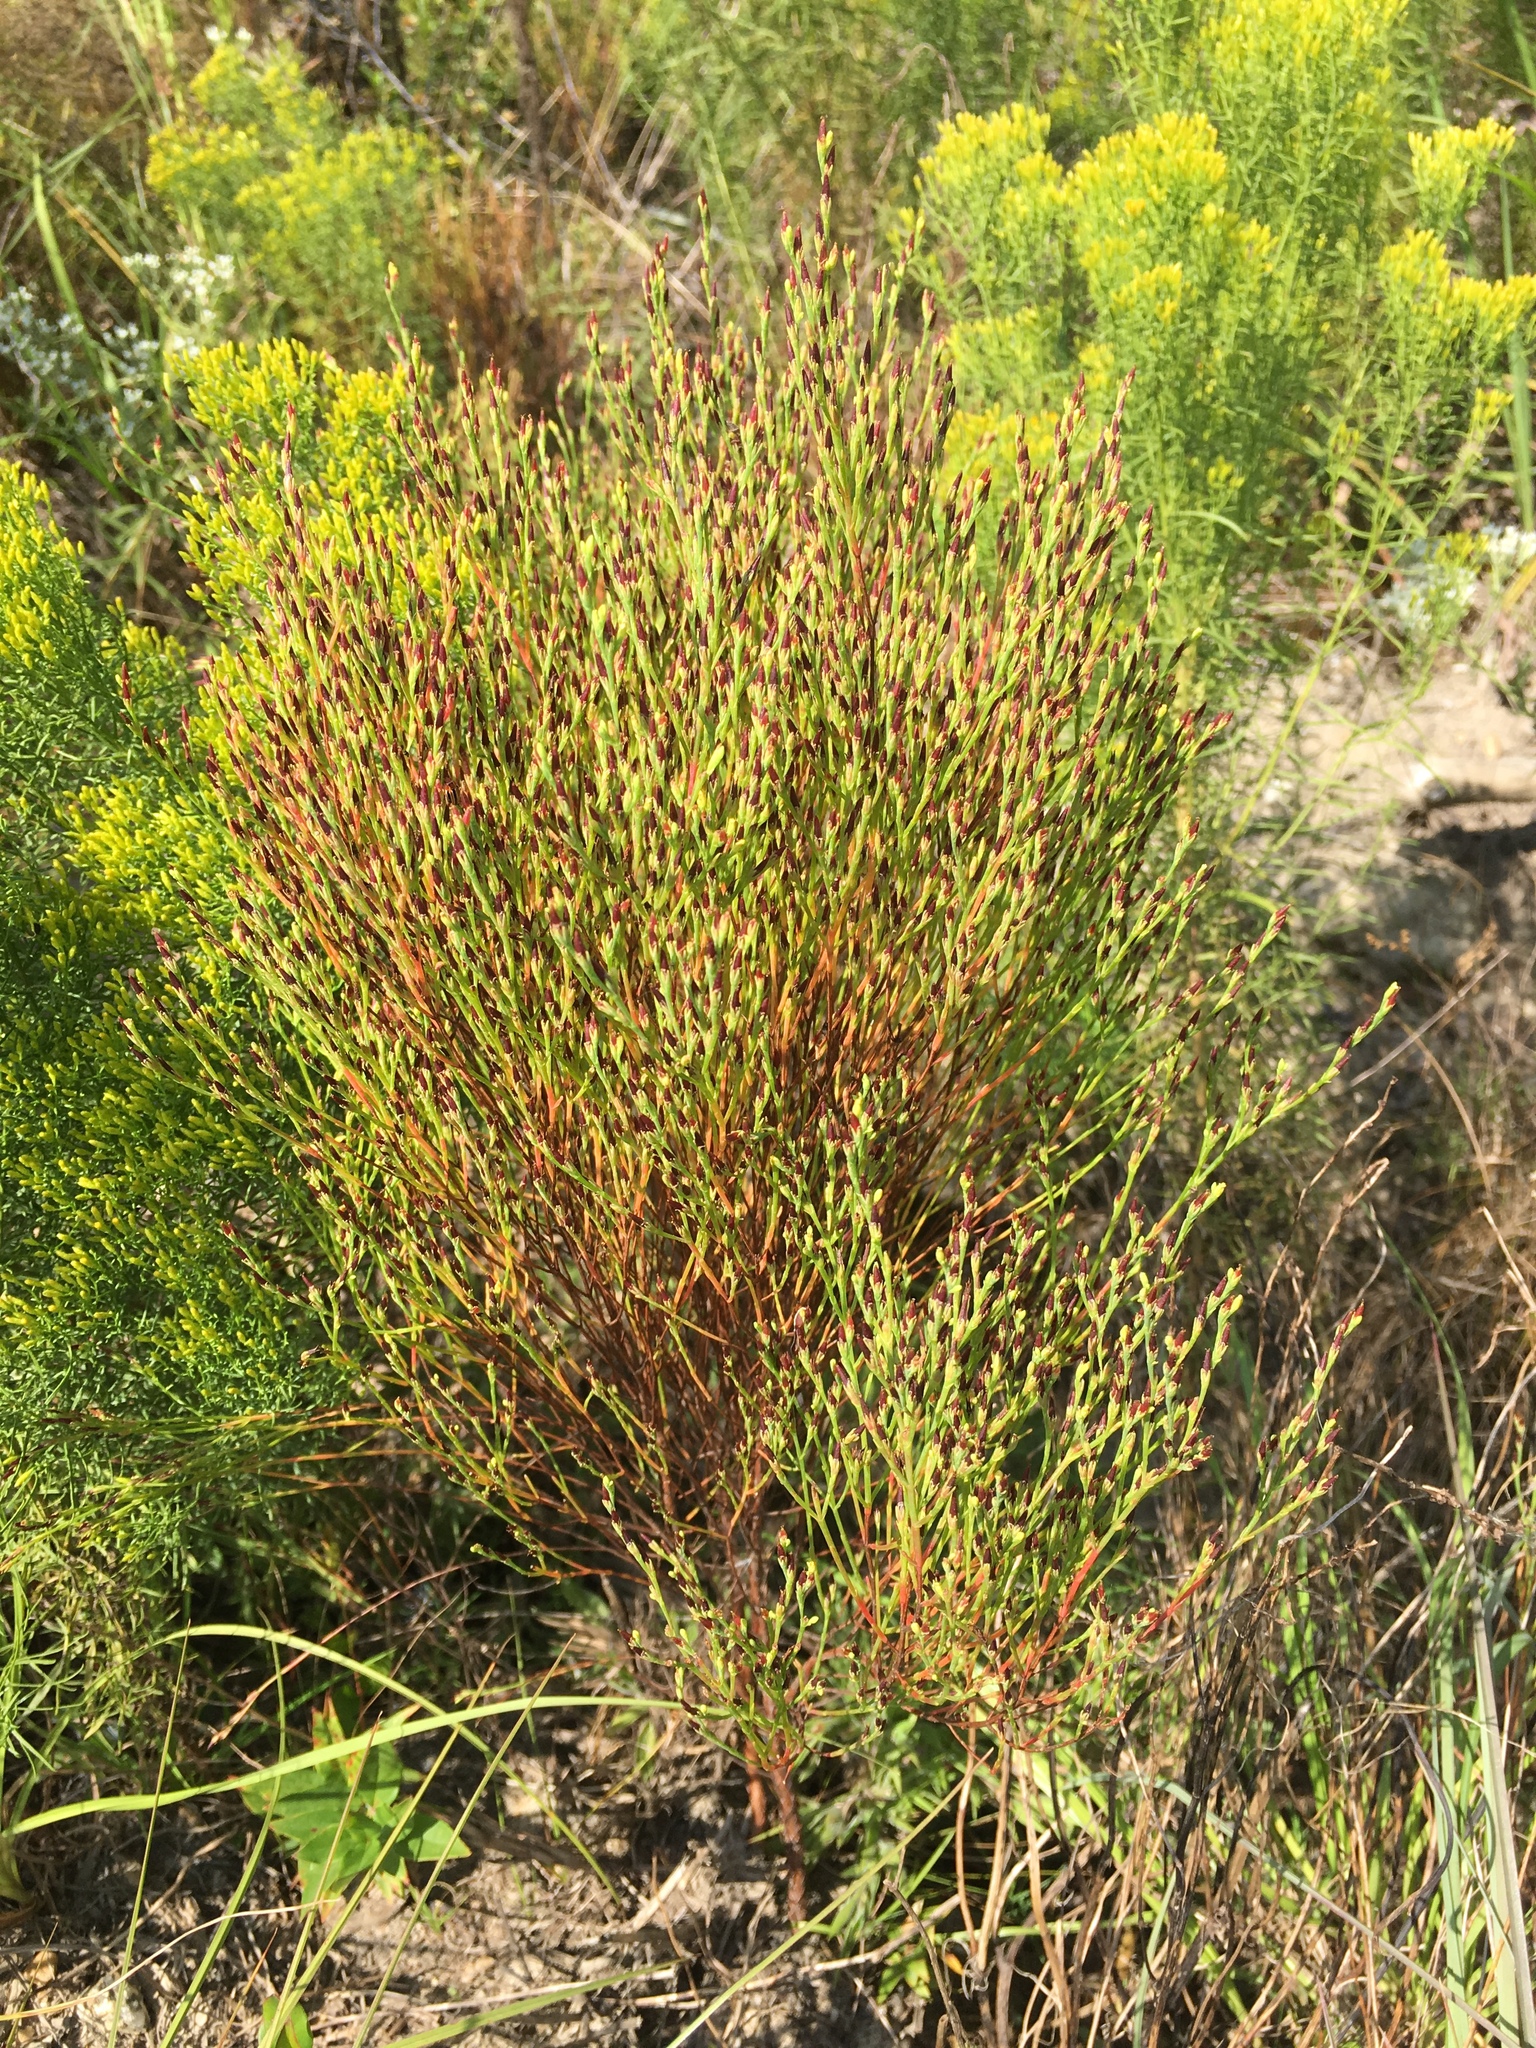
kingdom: Plantae
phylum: Tracheophyta
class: Magnoliopsida
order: Malpighiales
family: Hypericaceae
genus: Hypericum
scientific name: Hypericum gentianoides
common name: Gentian-leaved st. john's-wort
